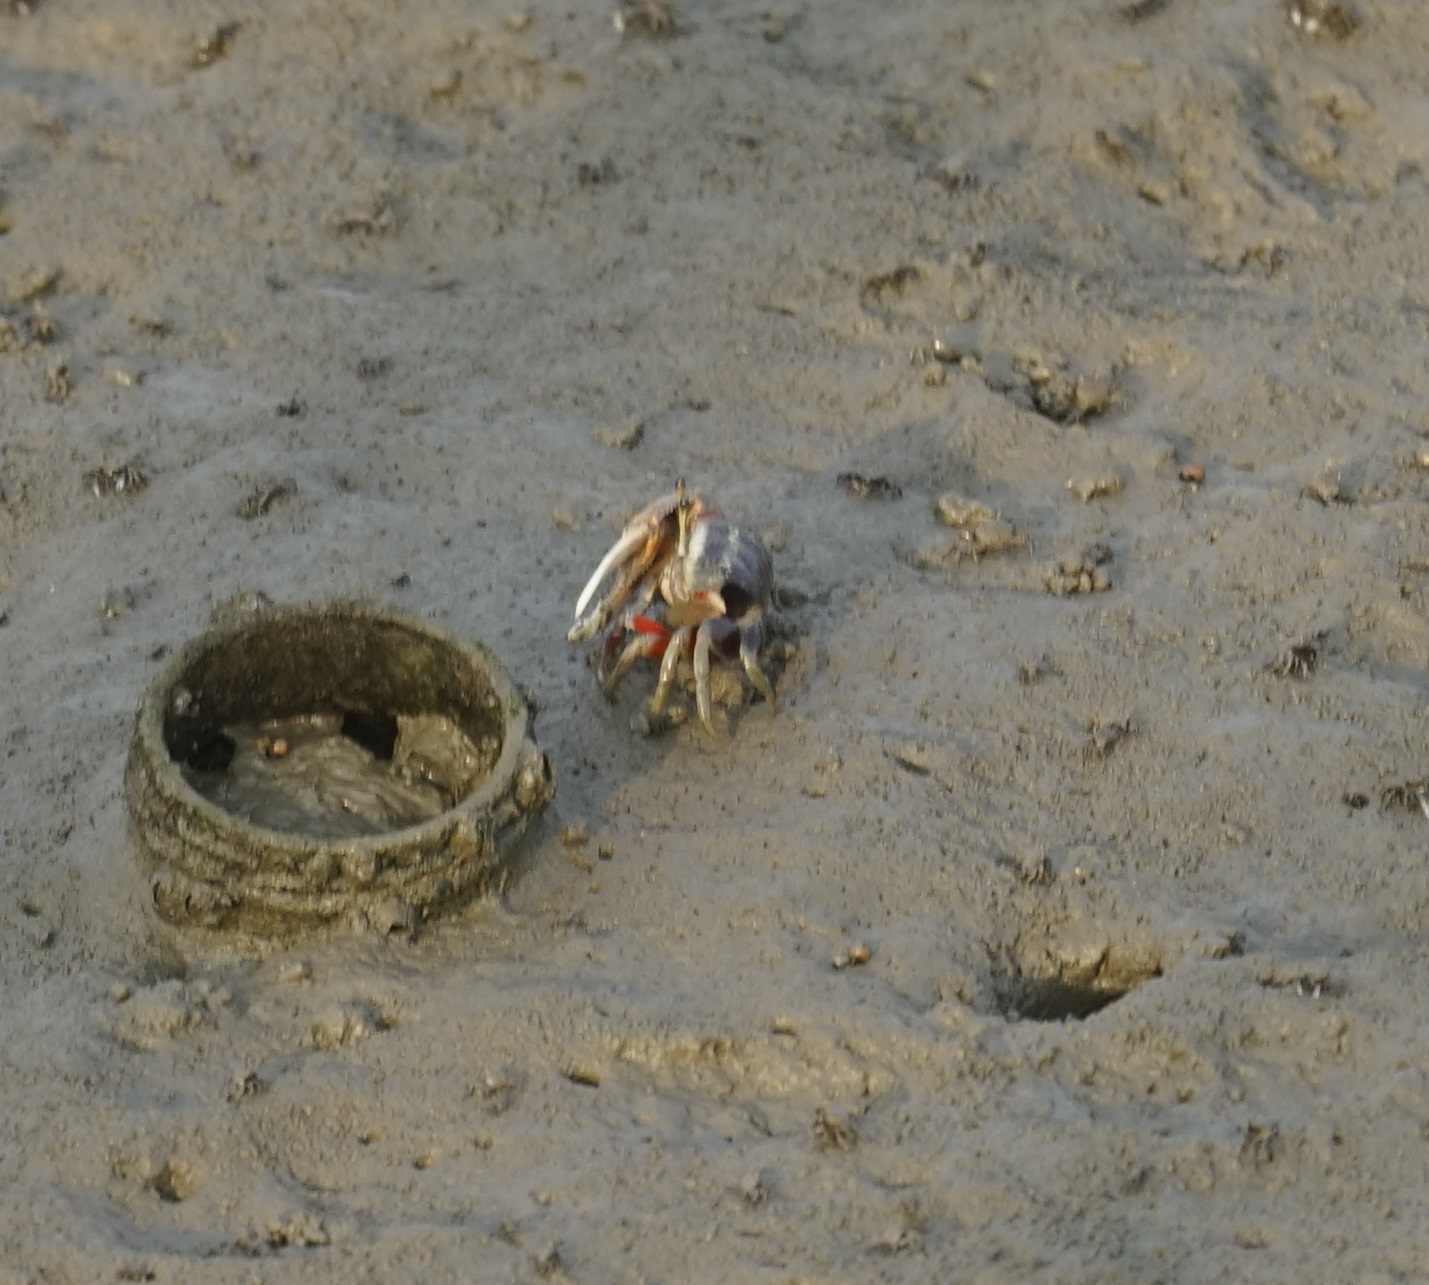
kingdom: Animalia
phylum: Arthropoda
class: Malacostraca
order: Decapoda
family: Ocypodidae
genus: Tubuca
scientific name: Tubuca arcuata
